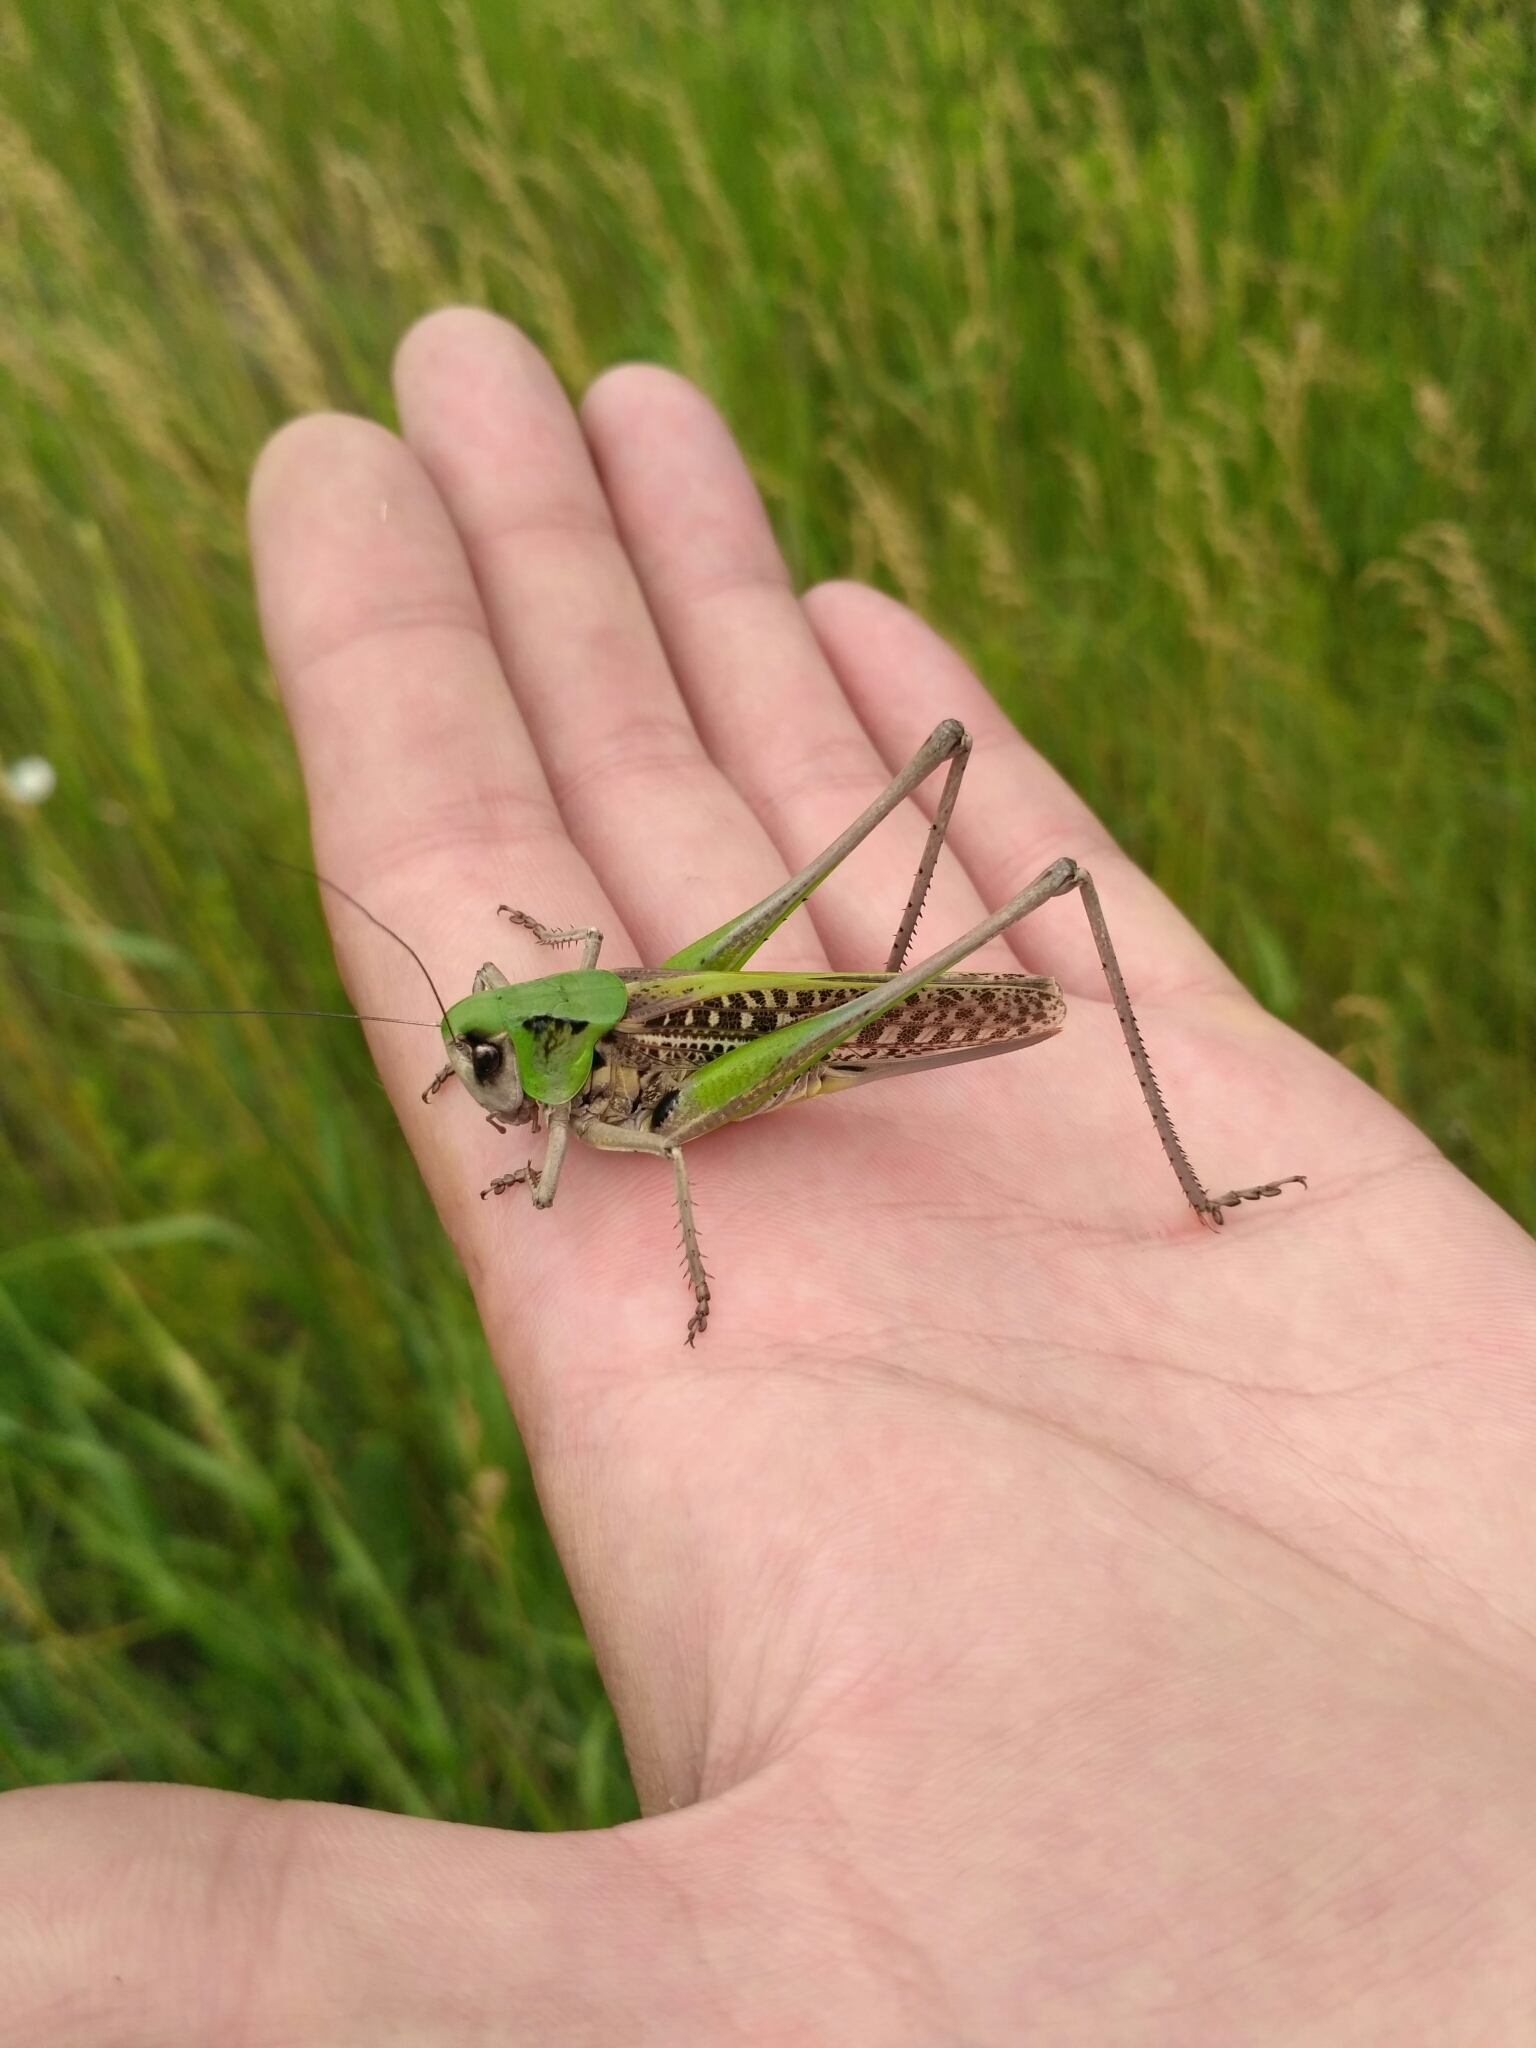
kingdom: Animalia
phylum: Arthropoda
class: Insecta
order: Orthoptera
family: Tettigoniidae
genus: Decticus
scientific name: Decticus verrucivorus
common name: Wart-biter
